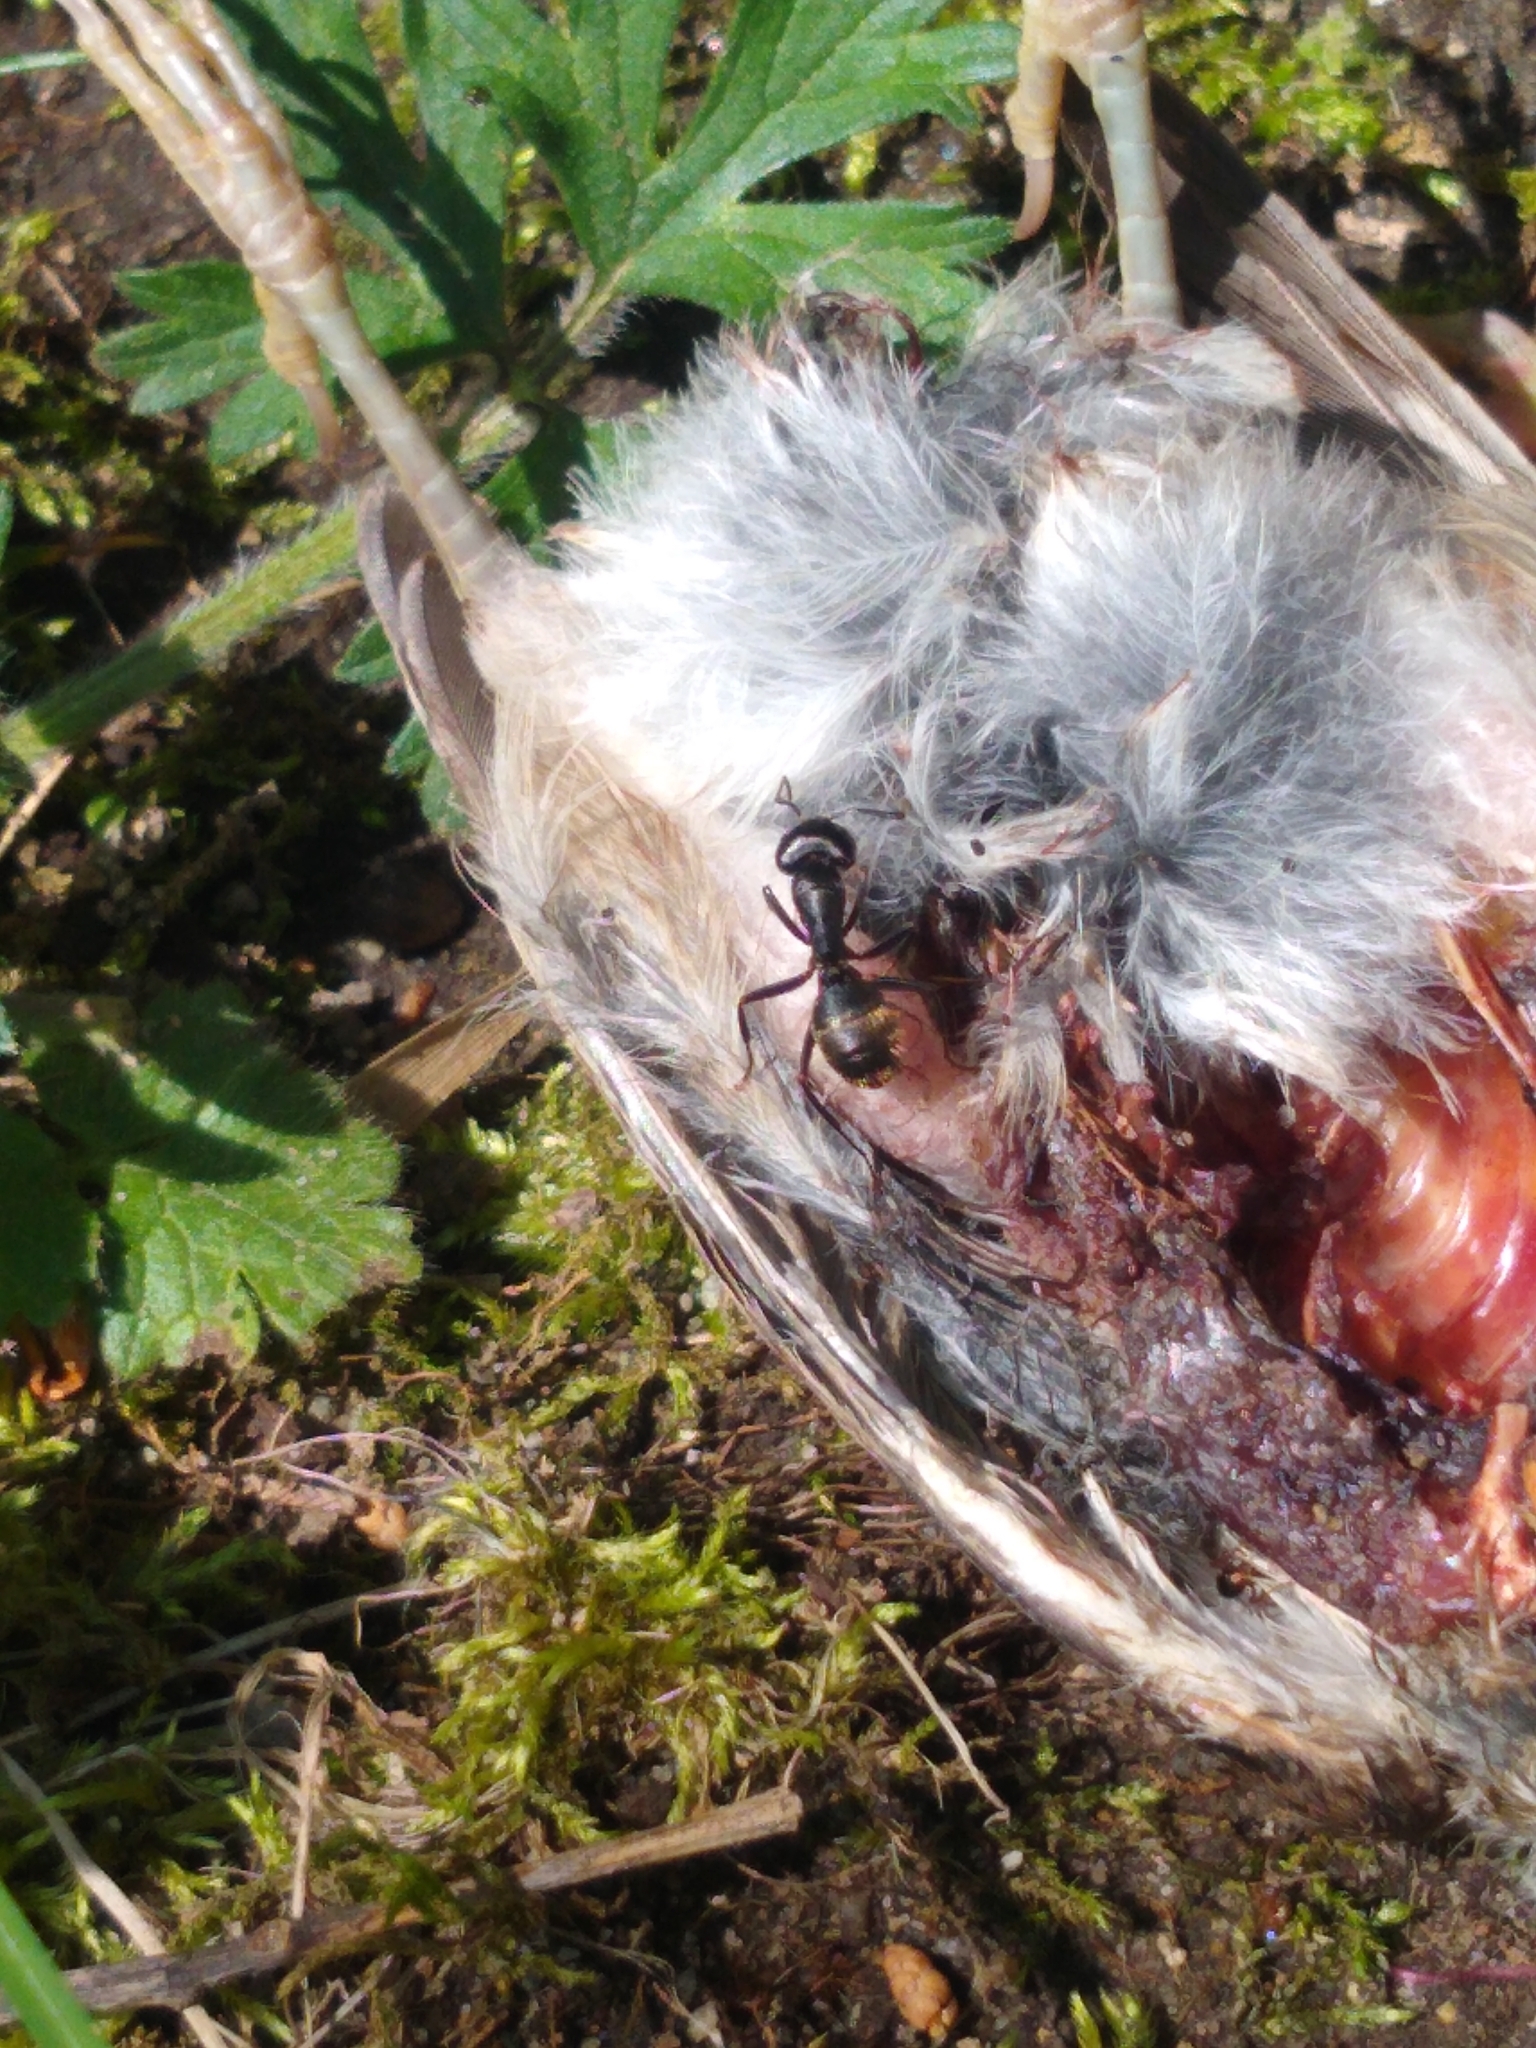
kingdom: Animalia
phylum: Arthropoda
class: Insecta
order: Hymenoptera
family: Formicidae
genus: Camponotus
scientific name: Camponotus pennsylvanicus
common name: Black carpenter ant
